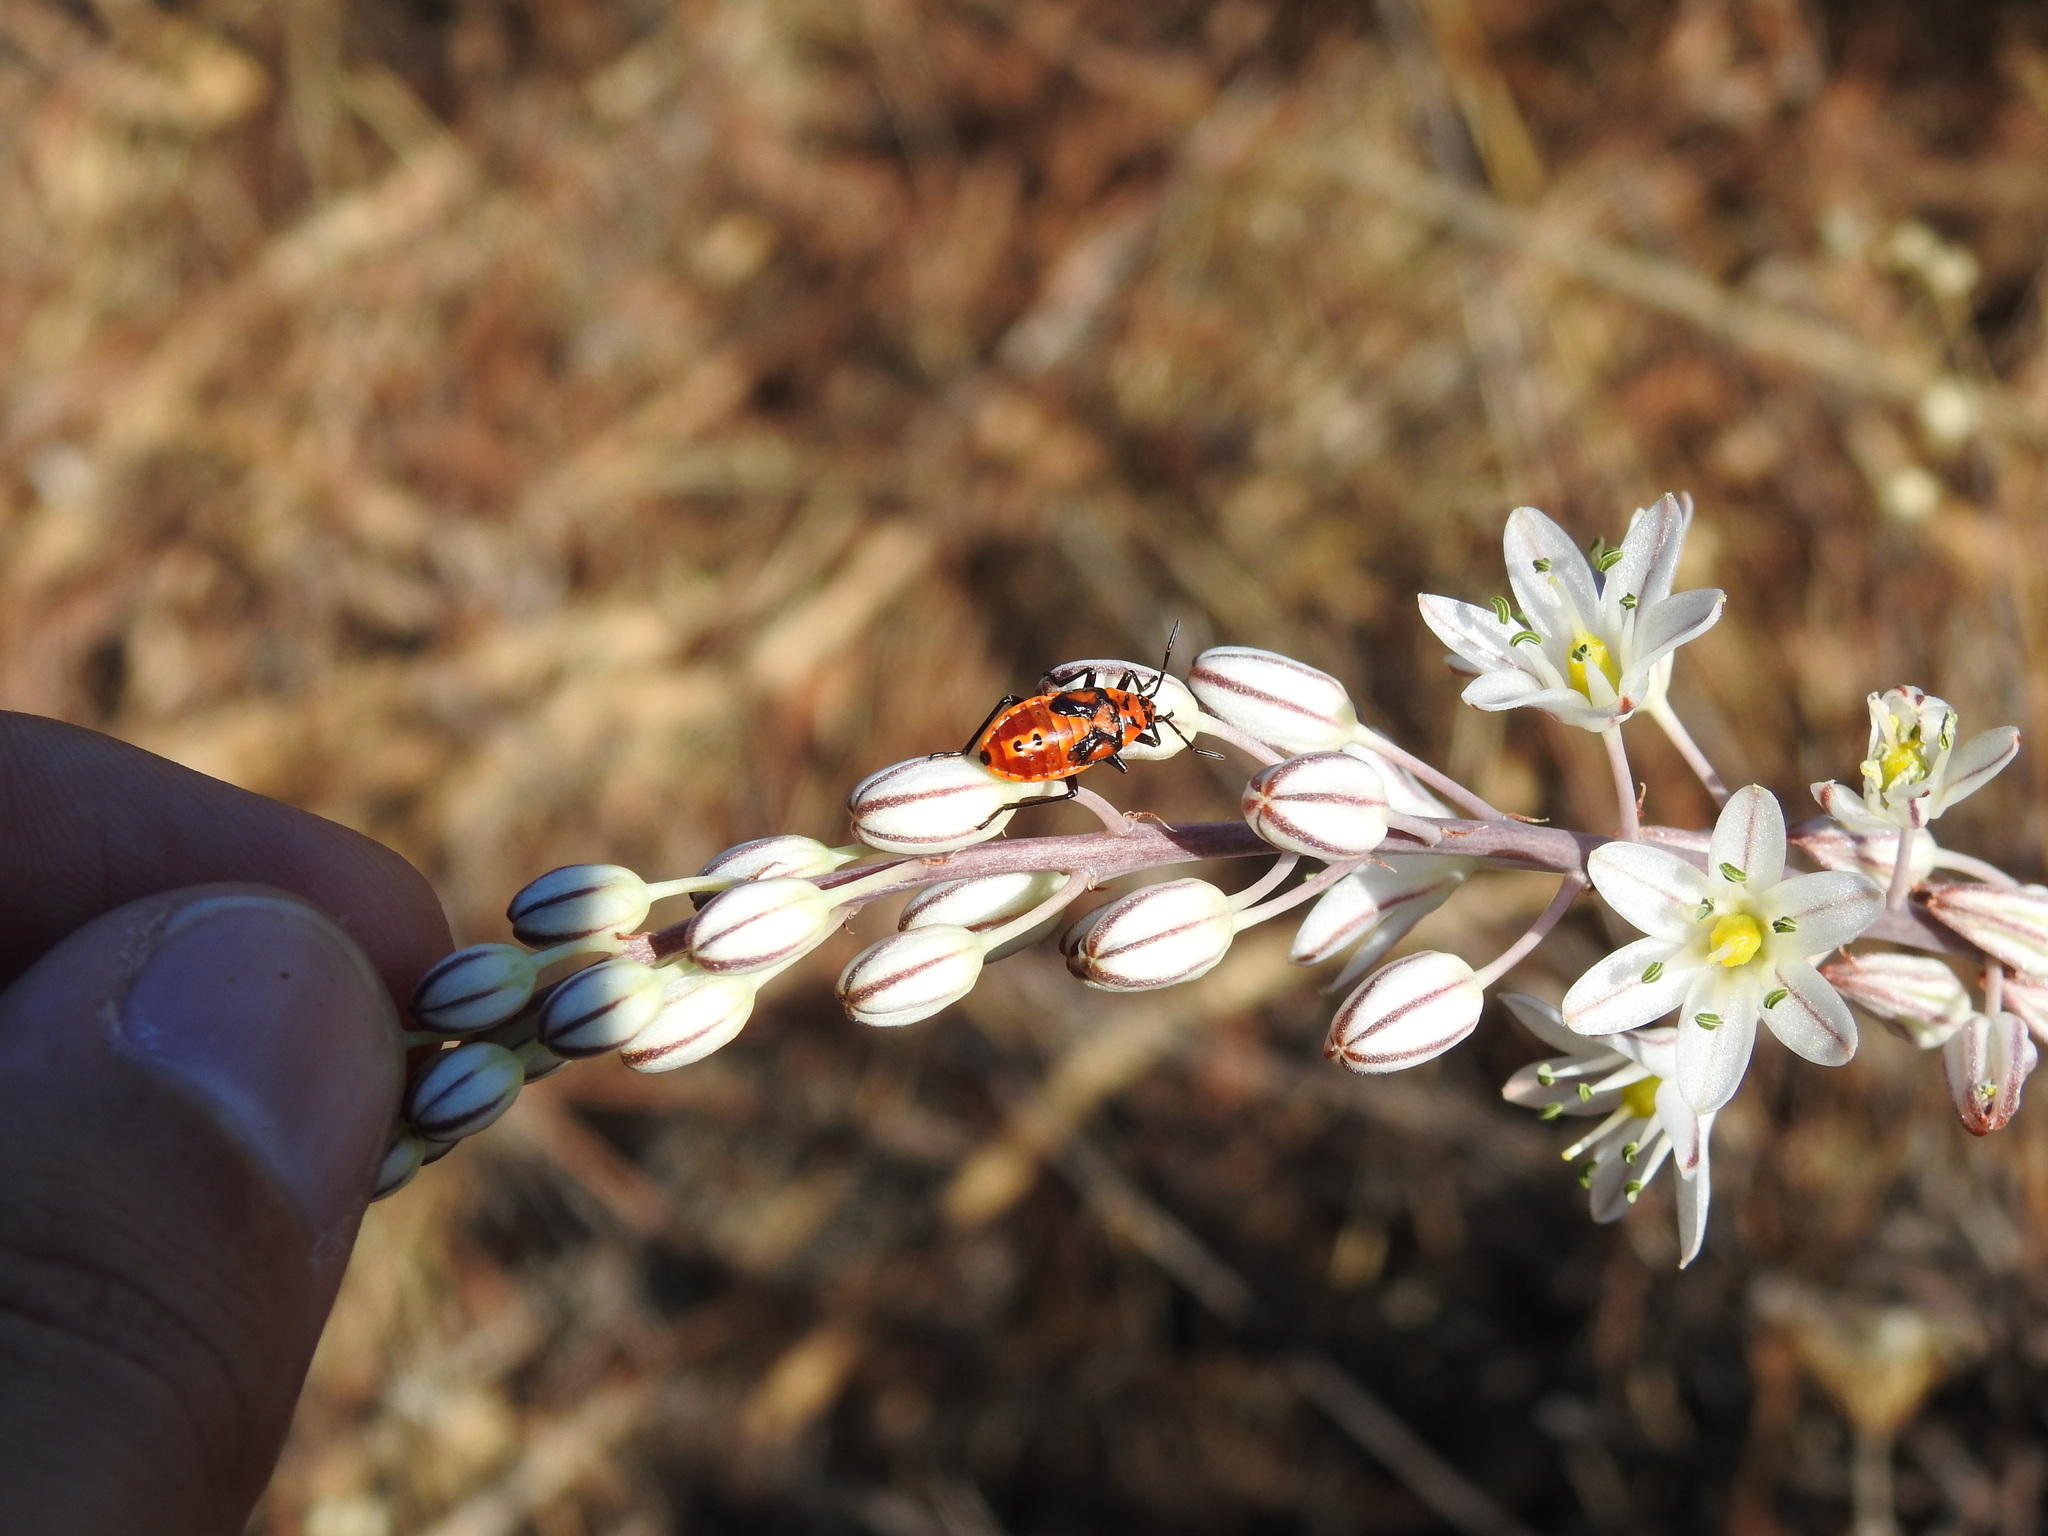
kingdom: Animalia
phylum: Arthropoda
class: Insecta
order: Hemiptera
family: Lygaeidae
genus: Spilostethus
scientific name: Spilostethus pandurus
